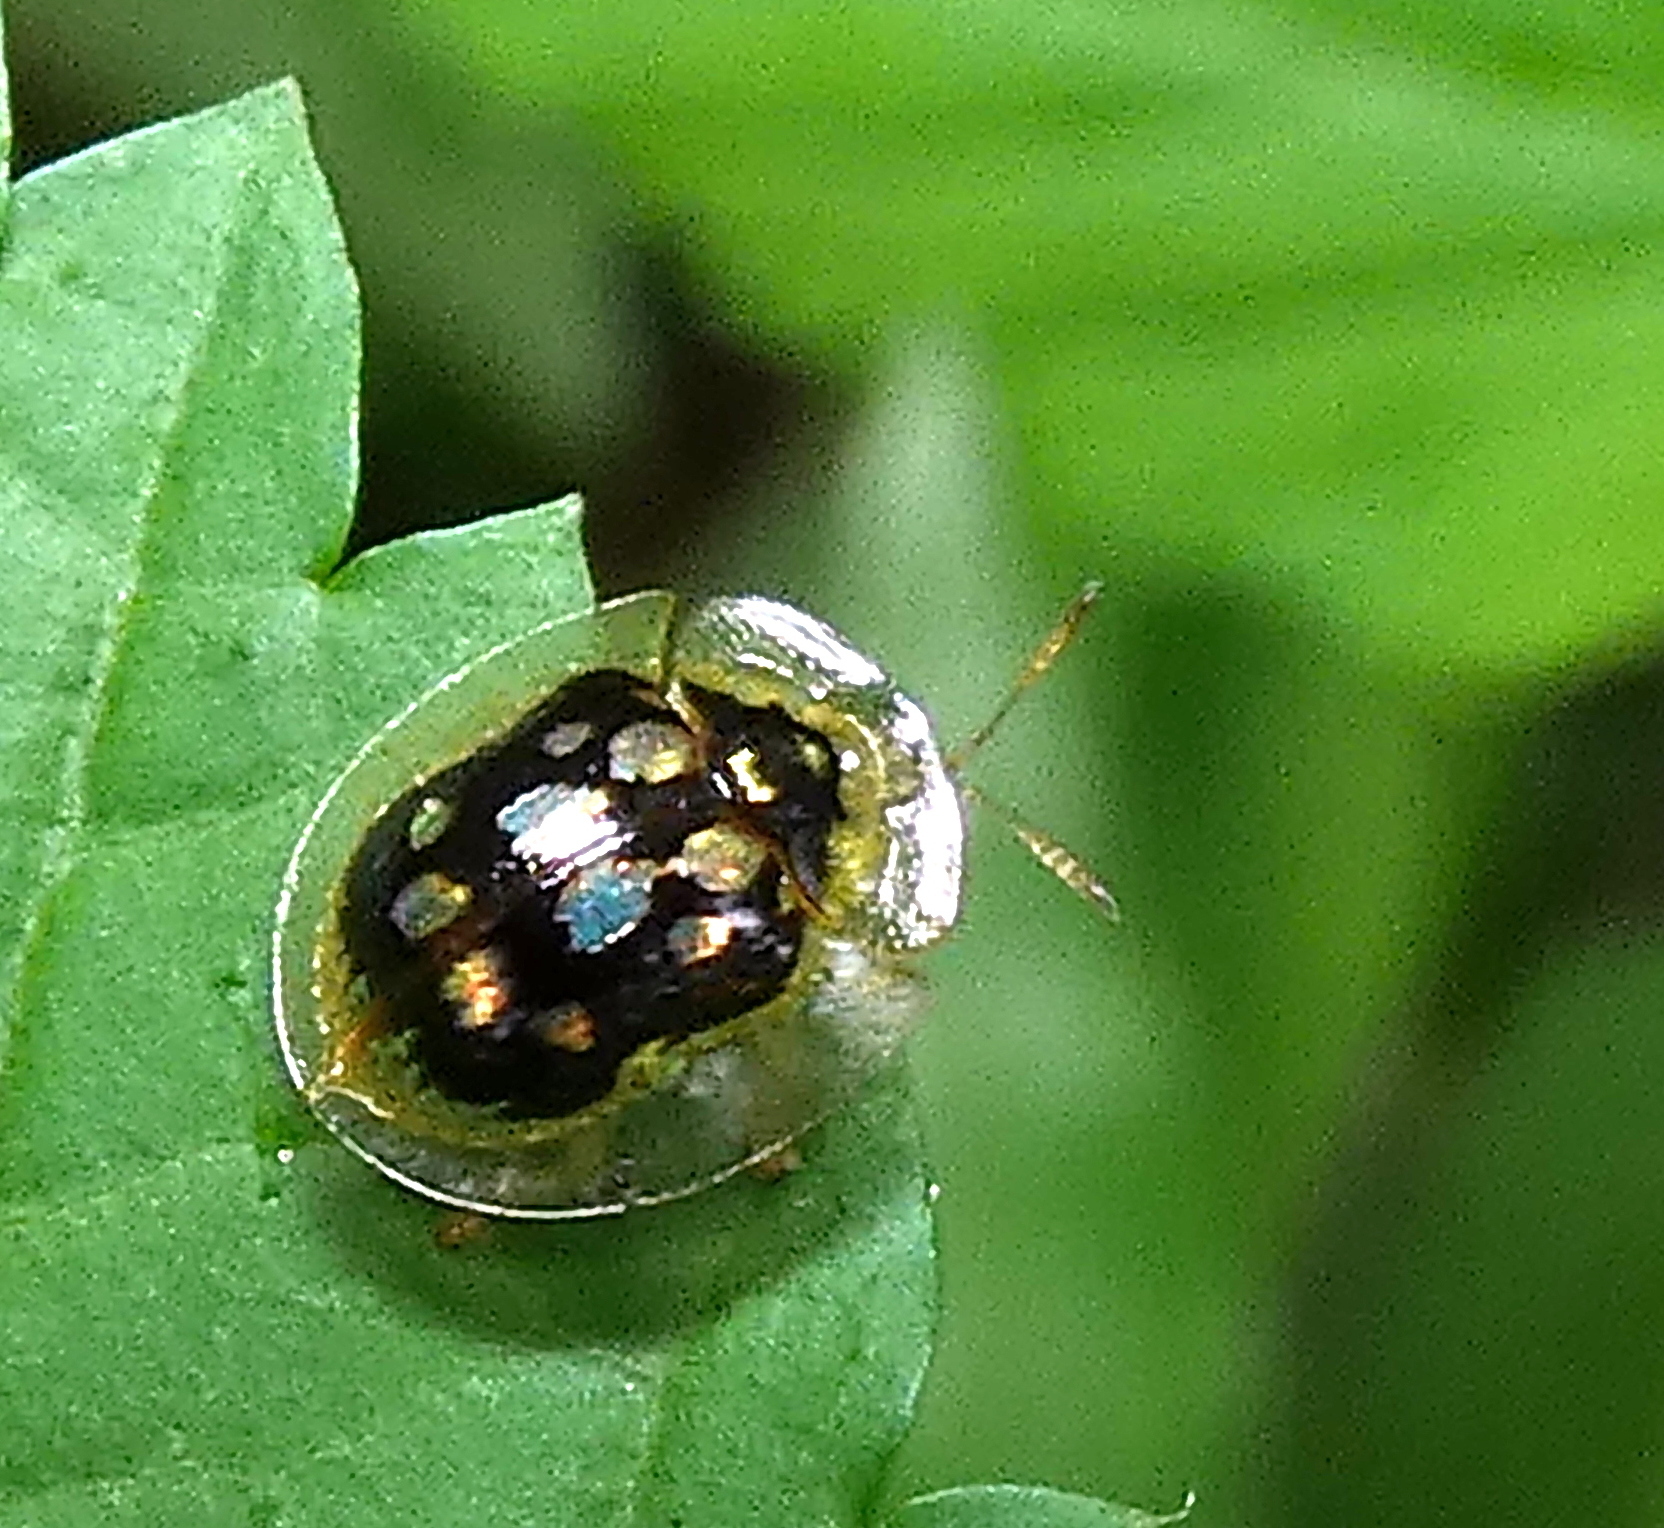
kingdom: Animalia
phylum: Arthropoda
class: Insecta
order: Coleoptera
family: Chrysomelidae
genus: Plagiometriona
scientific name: Plagiometriona microcera
